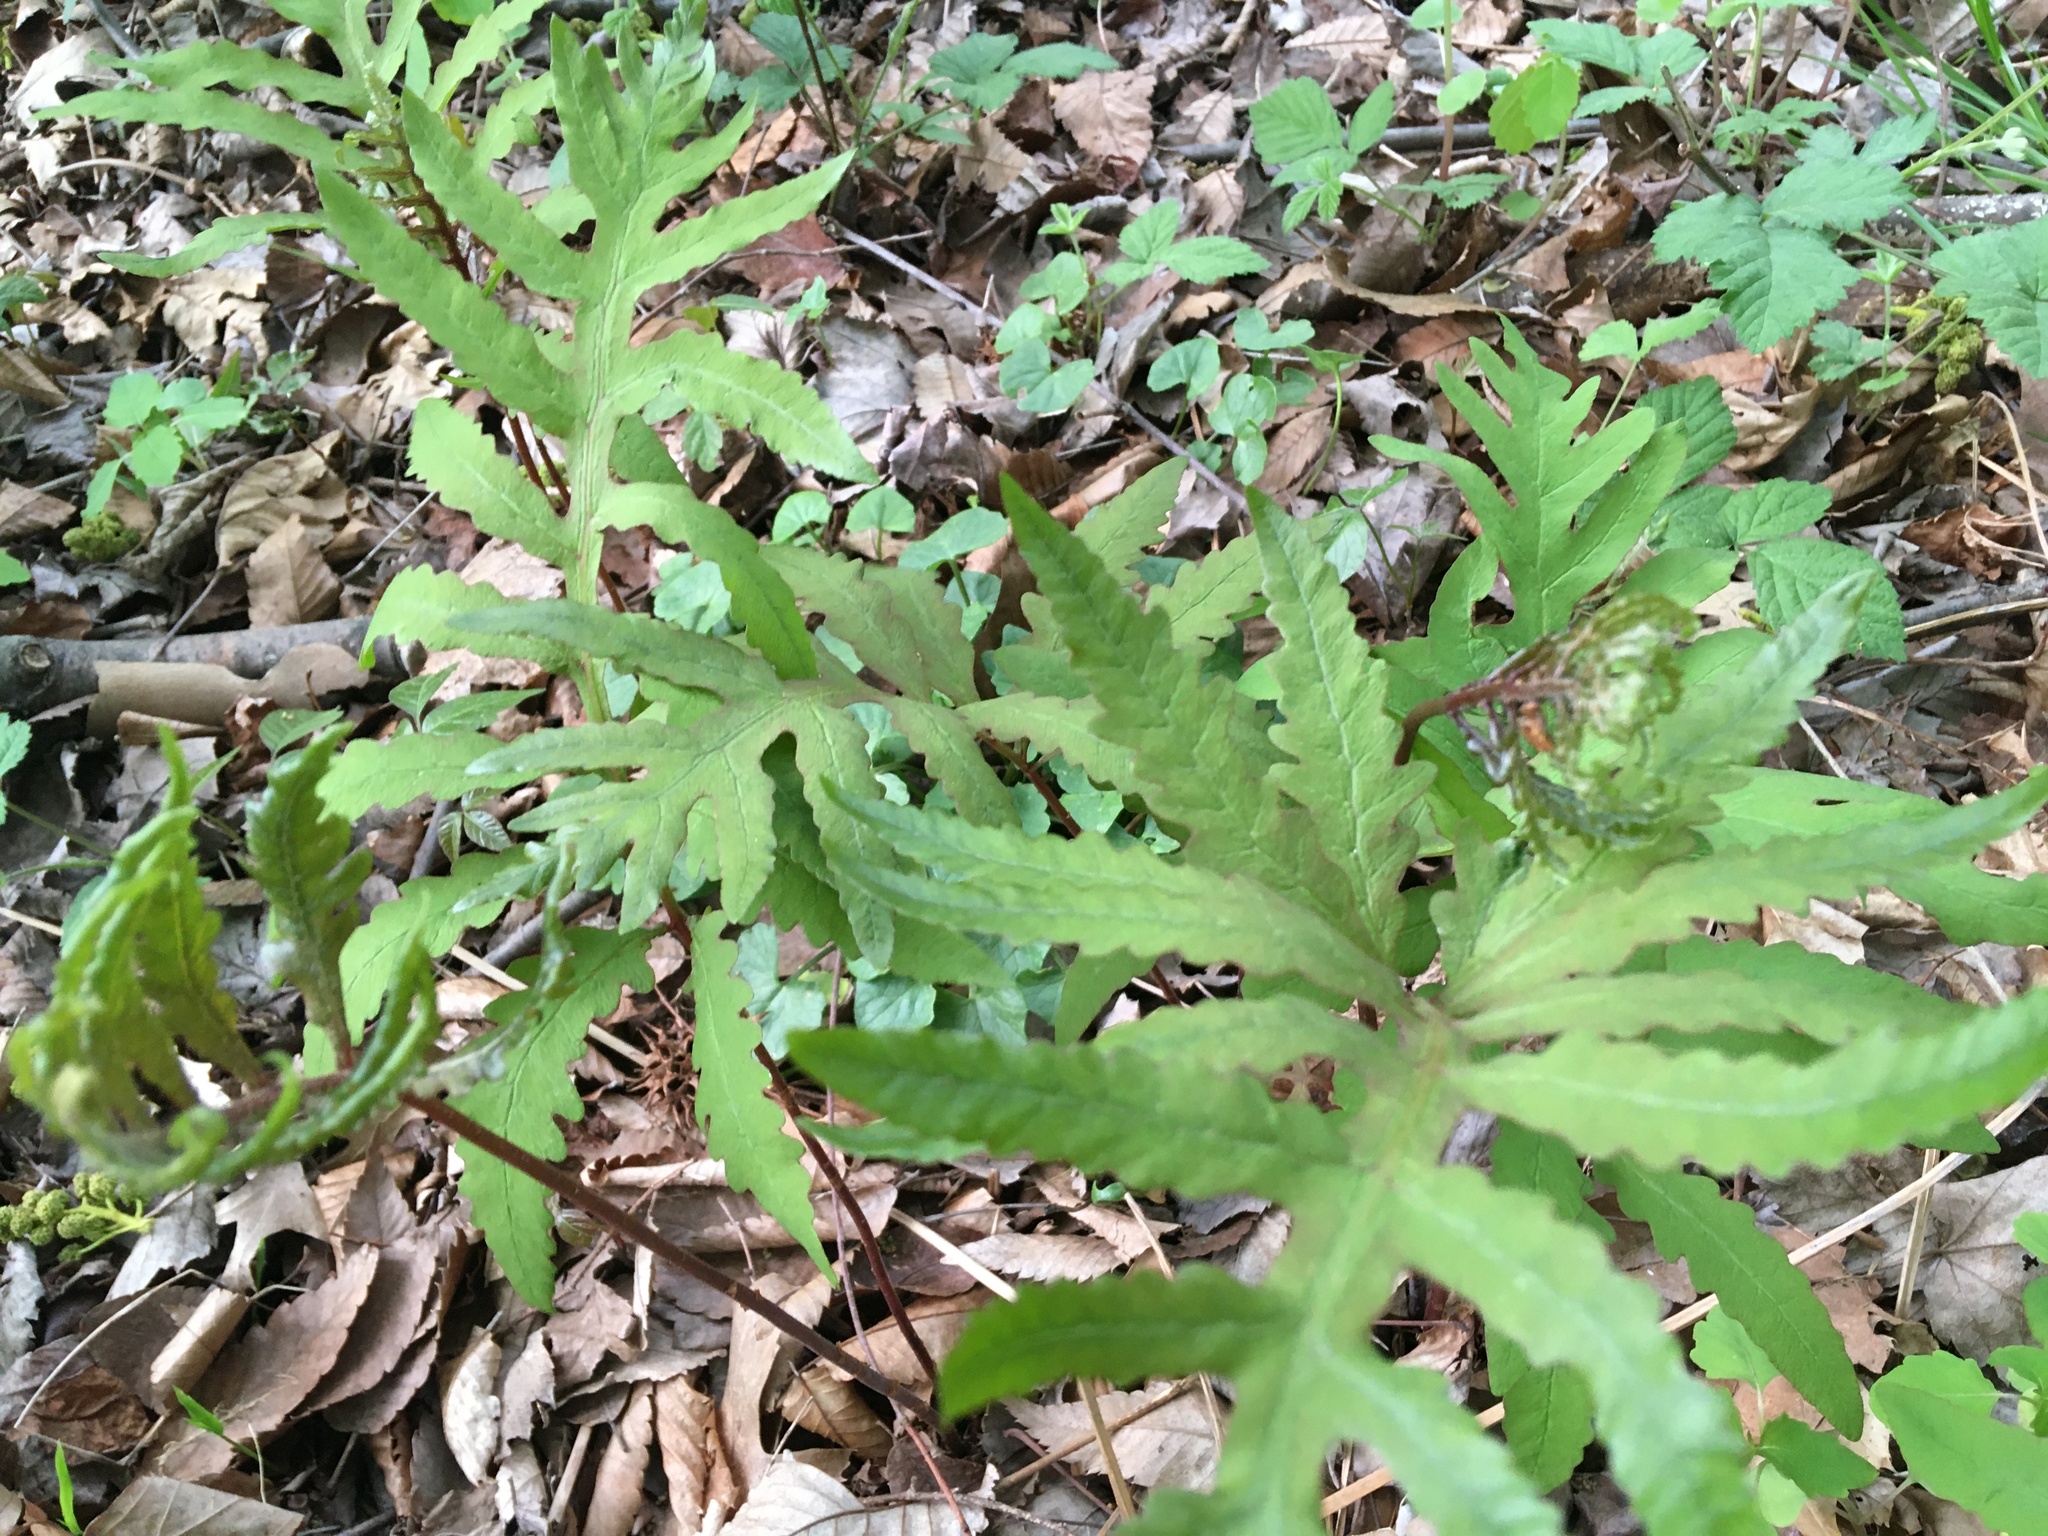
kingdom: Plantae
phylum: Tracheophyta
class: Polypodiopsida
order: Polypodiales
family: Onocleaceae
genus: Onoclea
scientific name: Onoclea sensibilis
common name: Sensitive fern
